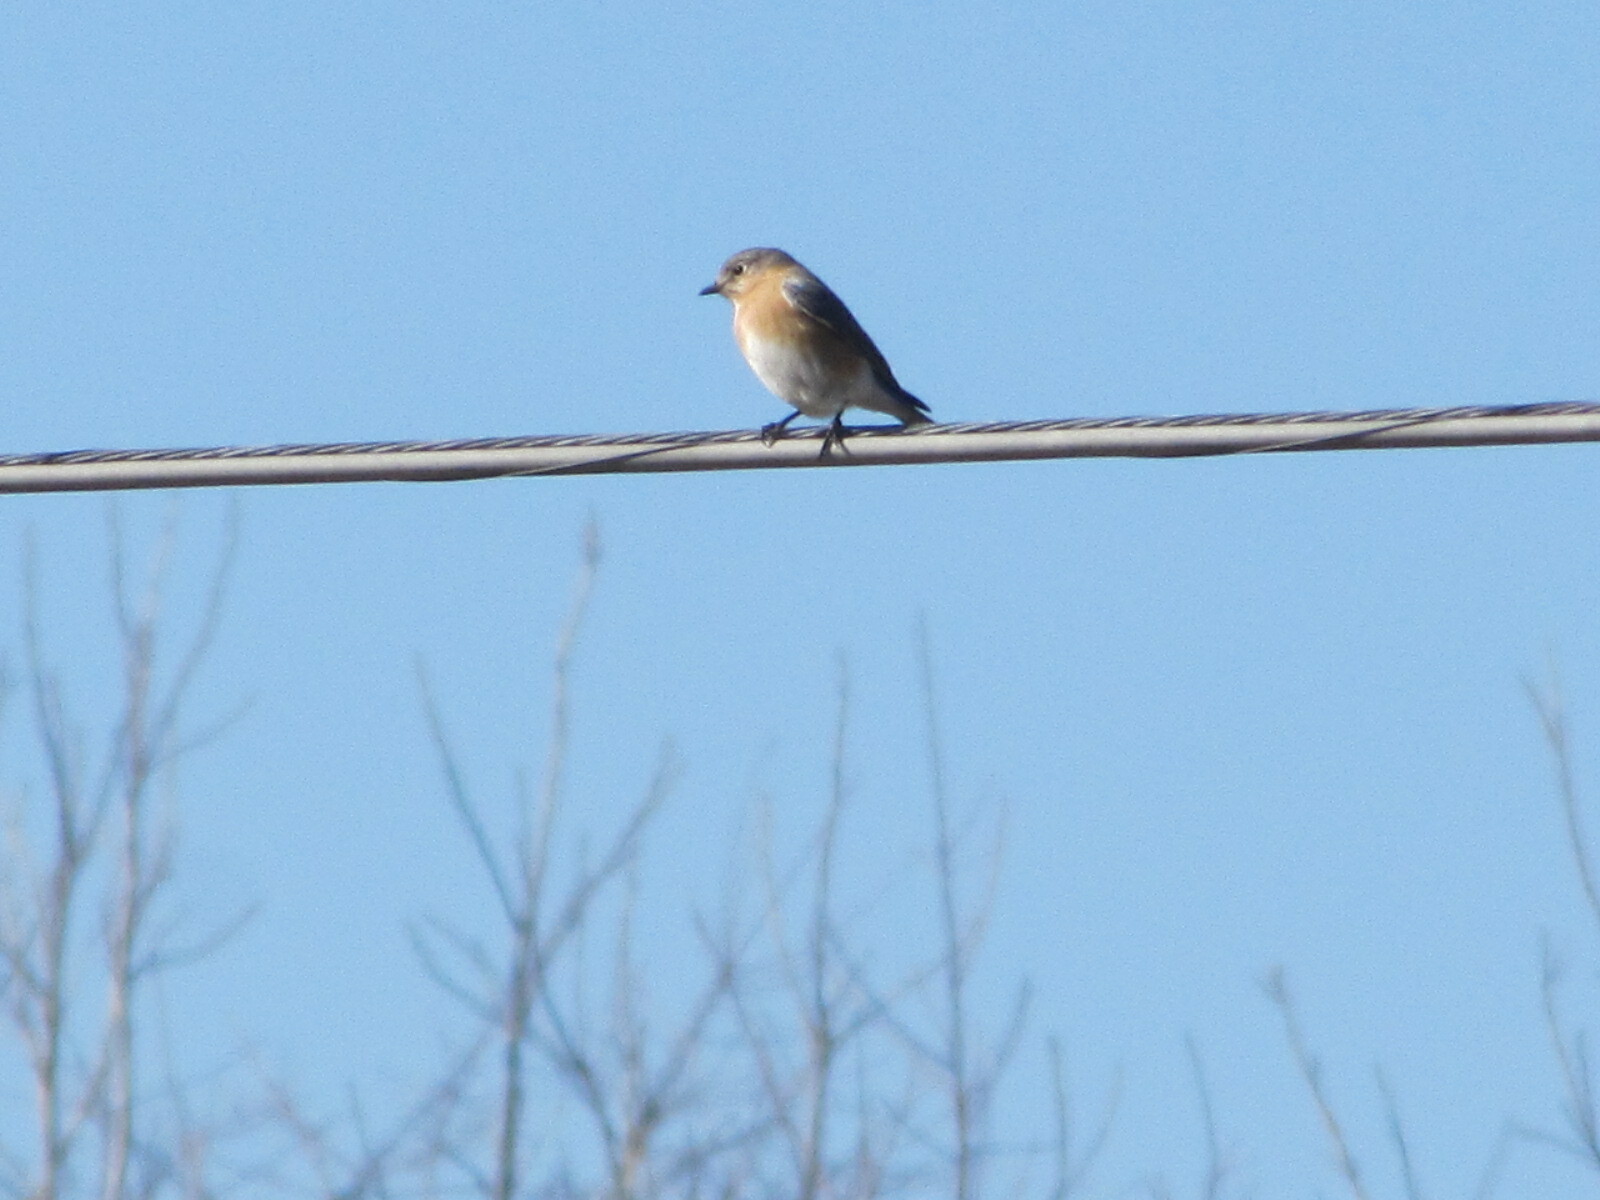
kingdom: Animalia
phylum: Chordata
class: Aves
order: Passeriformes
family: Turdidae
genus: Sialia
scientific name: Sialia sialis
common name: Eastern bluebird
